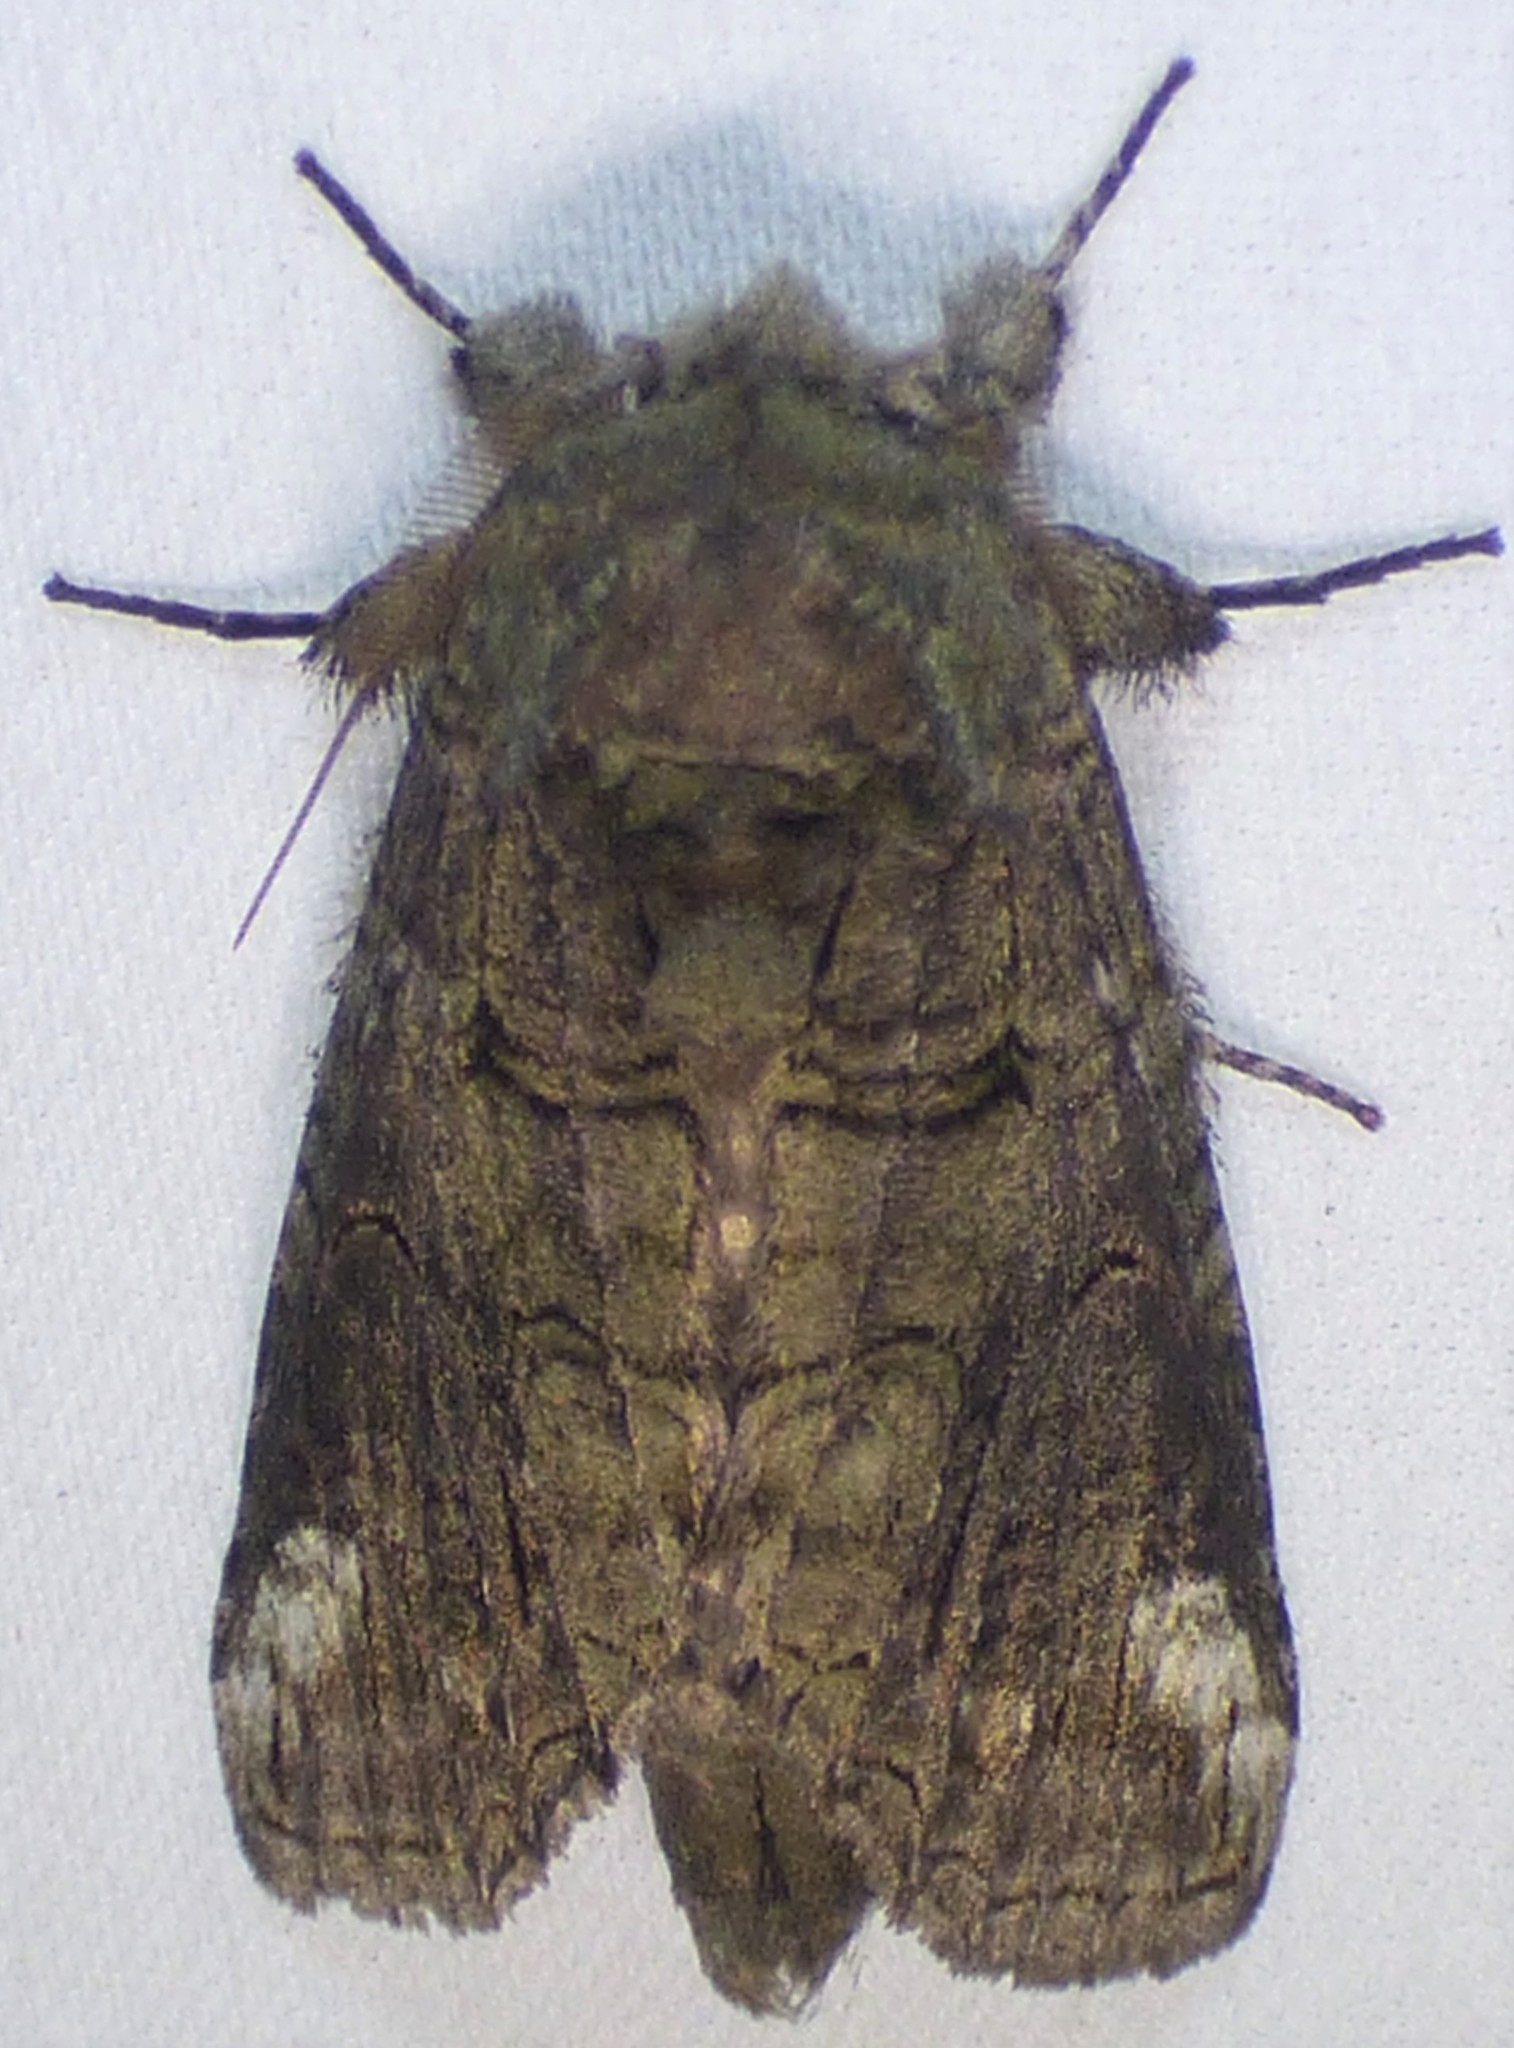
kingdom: Animalia
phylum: Arthropoda
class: Insecta
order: Lepidoptera
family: Notodontidae
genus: Heterocampa
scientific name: Heterocampa obliqua
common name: Oblique heterocampa
